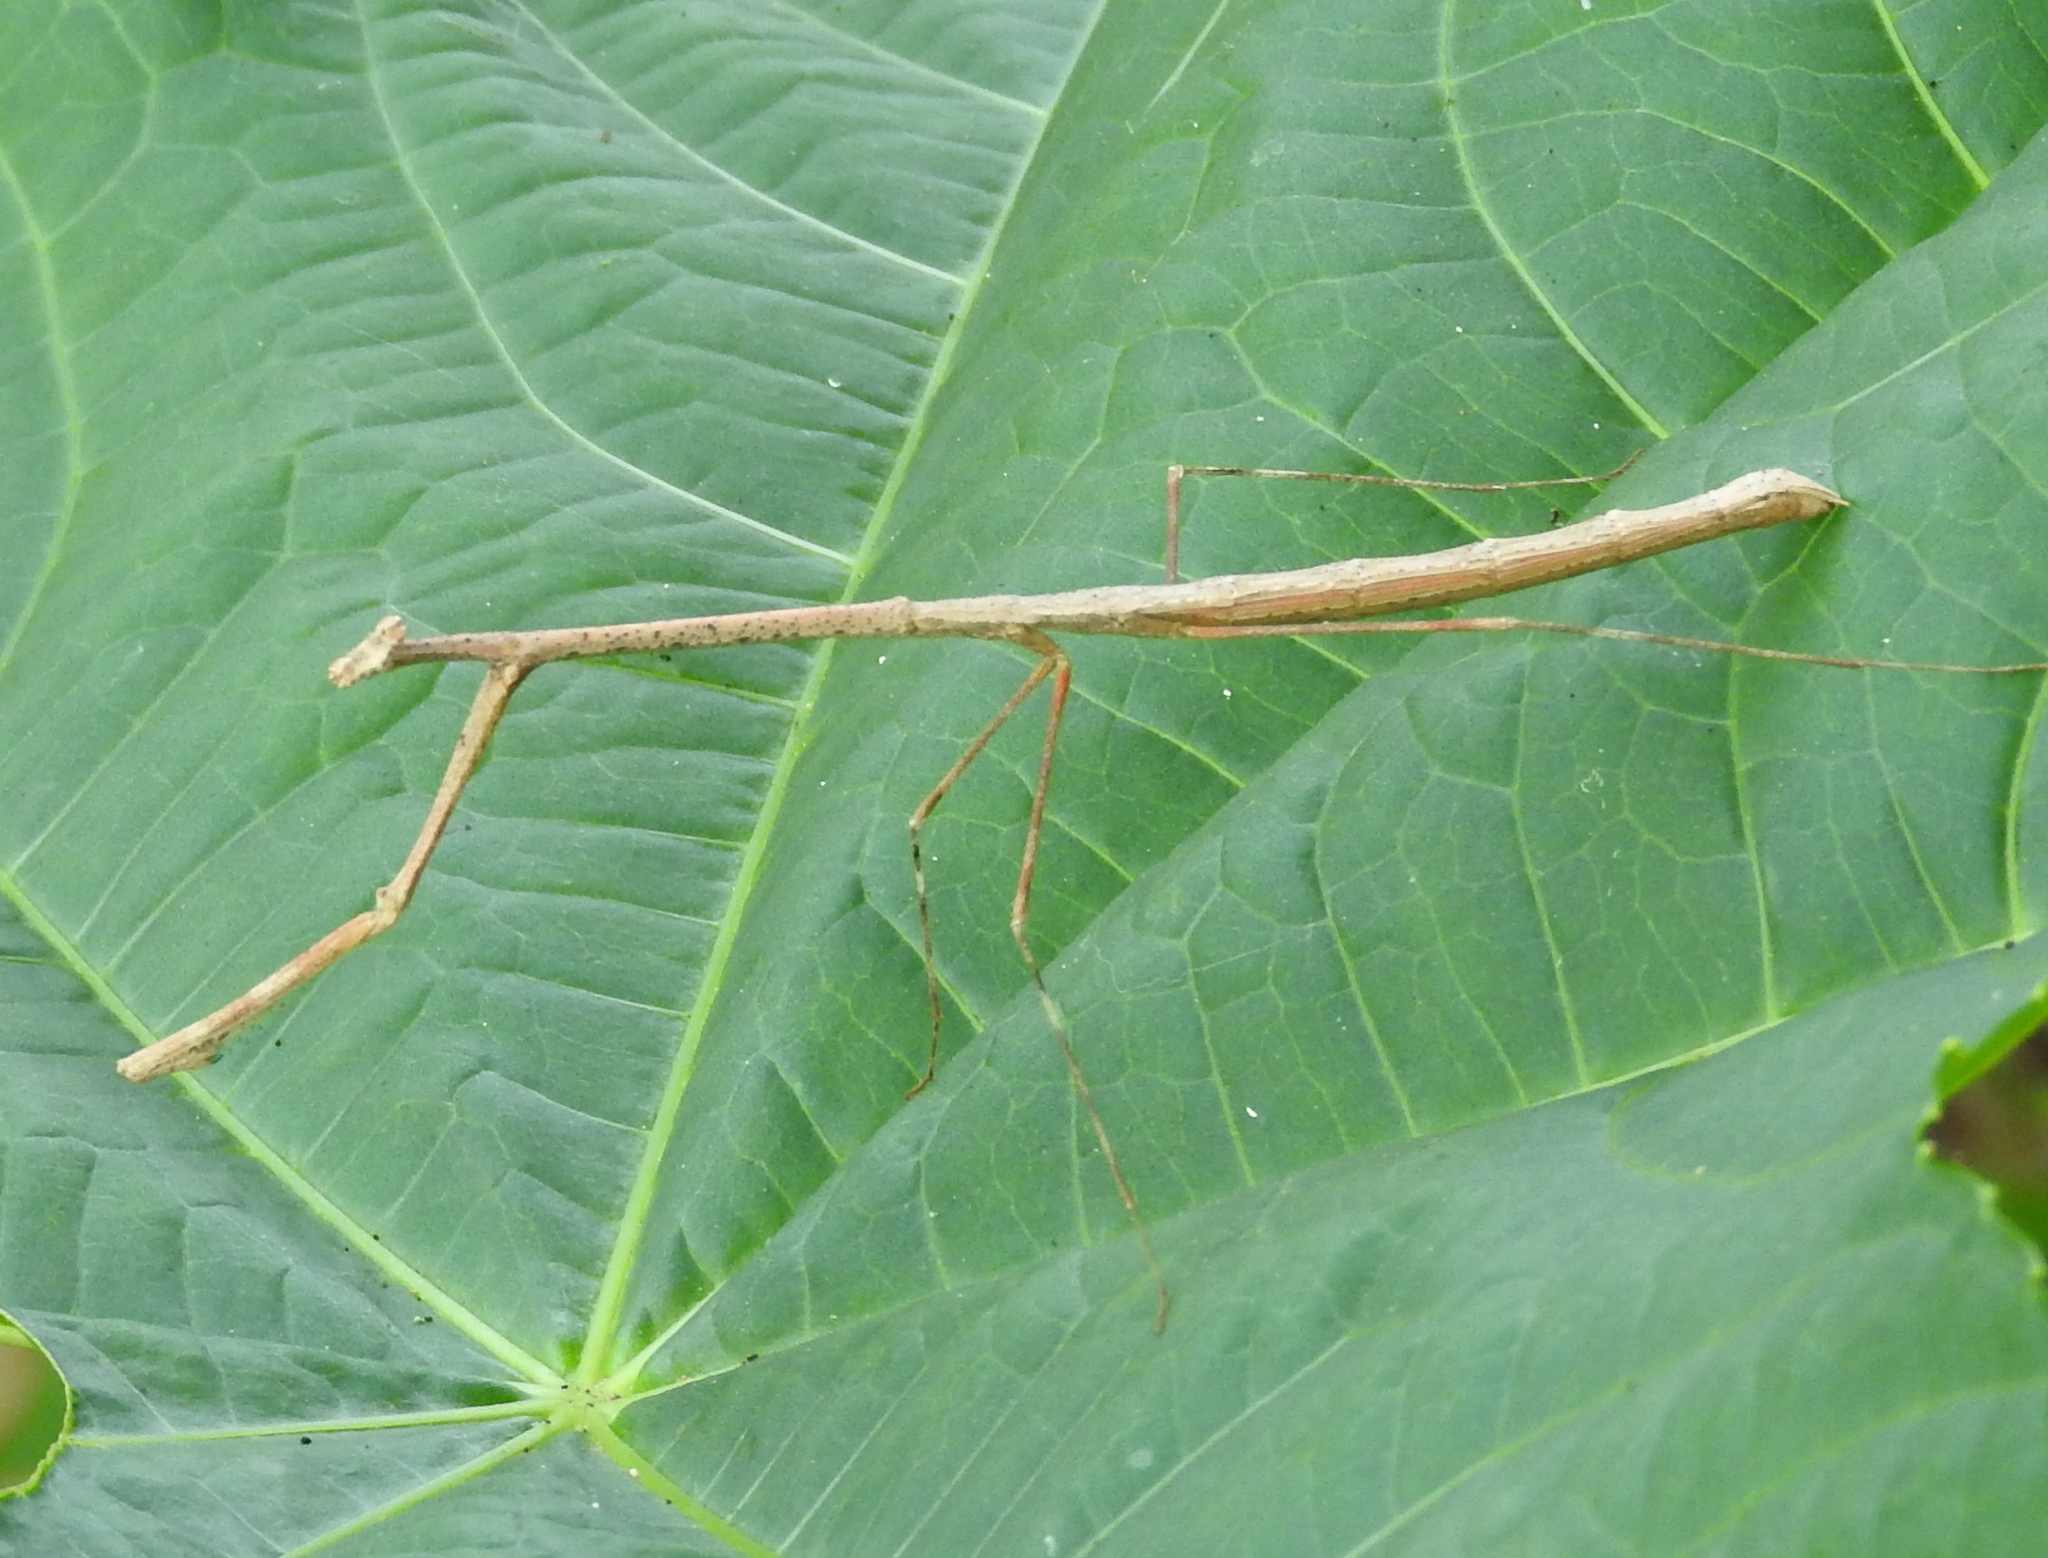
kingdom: Animalia
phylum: Arthropoda
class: Insecta
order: Mantodea
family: Thespidae
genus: Bistanta
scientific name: Bistanta mexicana
